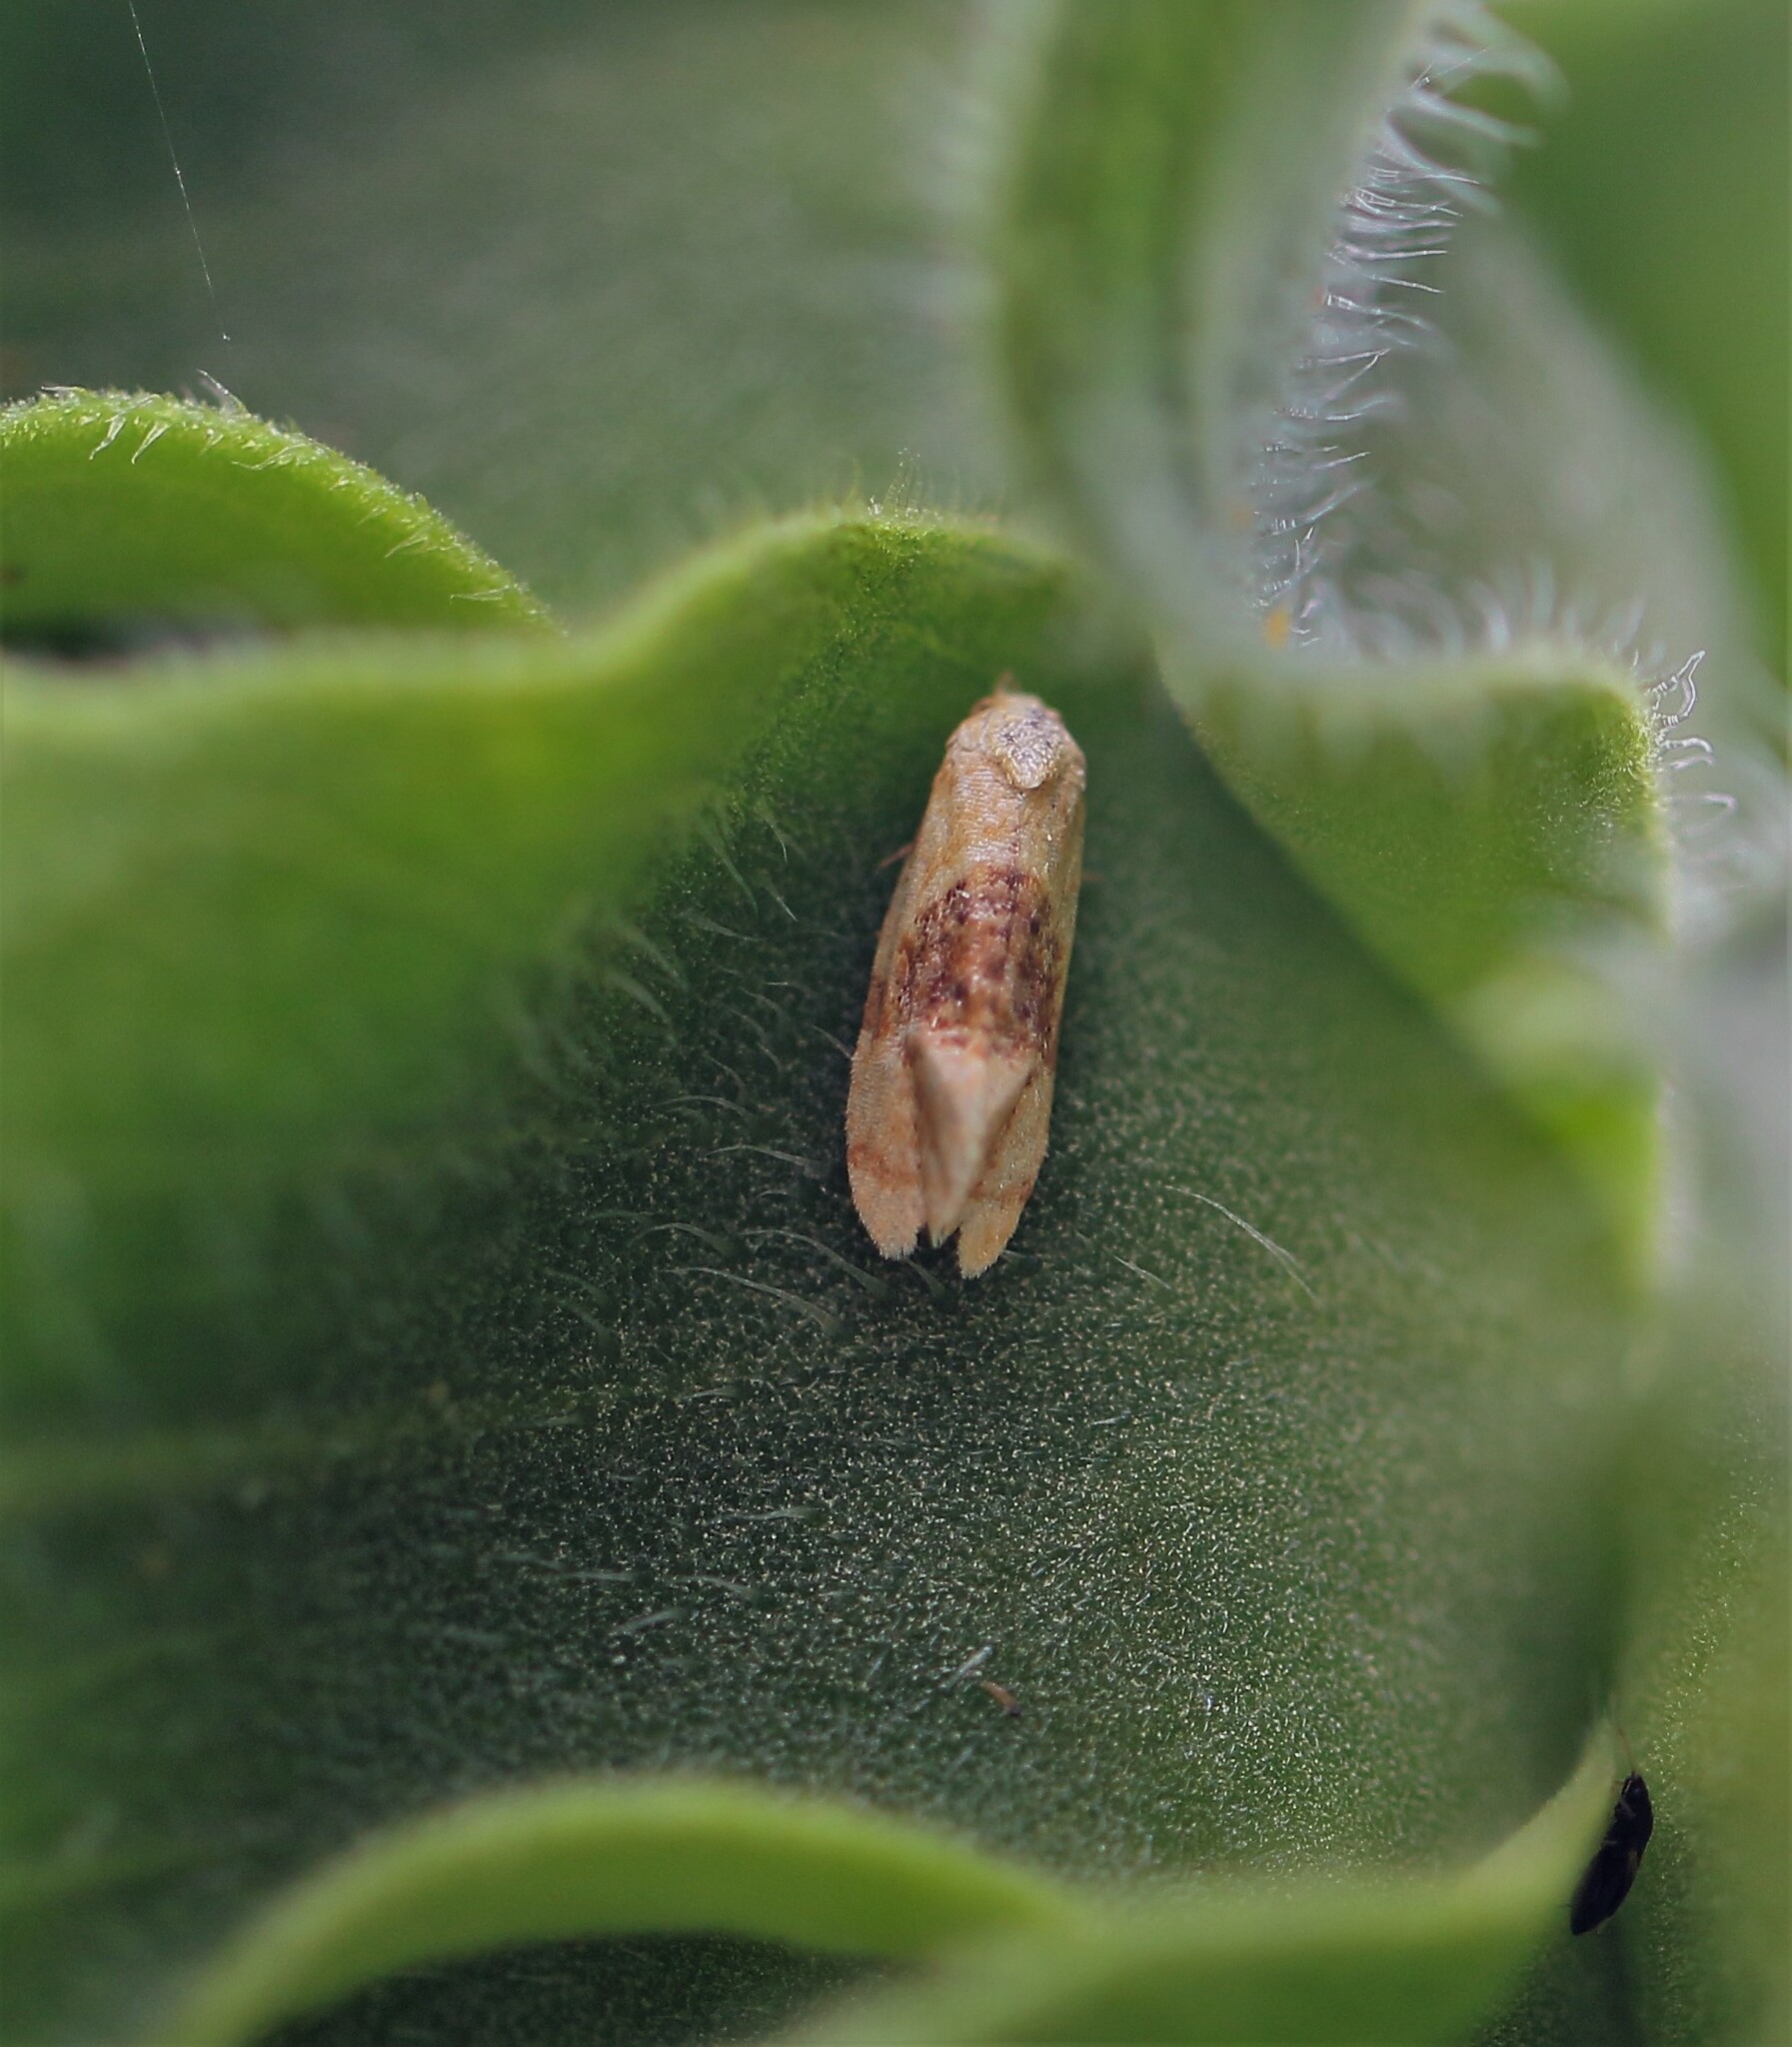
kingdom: Animalia
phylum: Arthropoda
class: Insecta
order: Lepidoptera
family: Tortricidae
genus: Cochylis
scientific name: Cochylis Cochylichroa hospes
